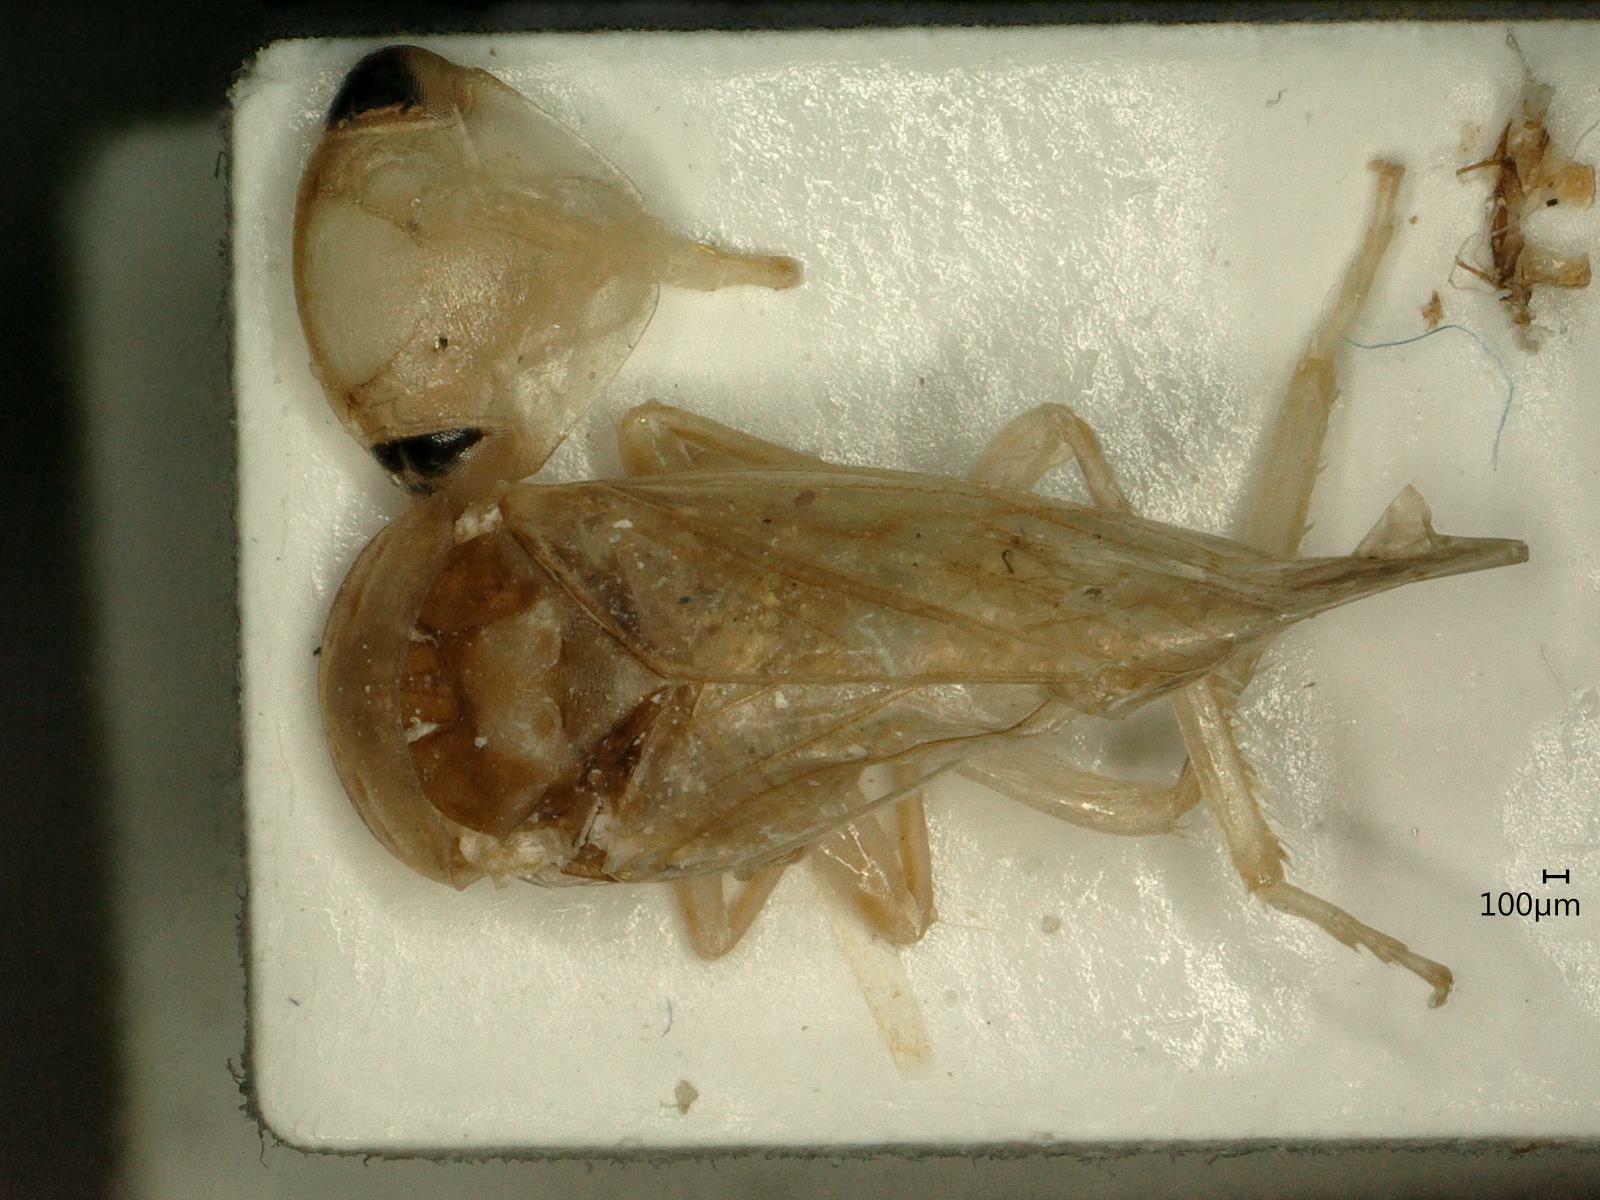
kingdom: Animalia
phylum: Arthropoda
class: Insecta
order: Hemiptera
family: Cicadellidae
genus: Tremulicerus
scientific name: Tremulicerus vitreus
